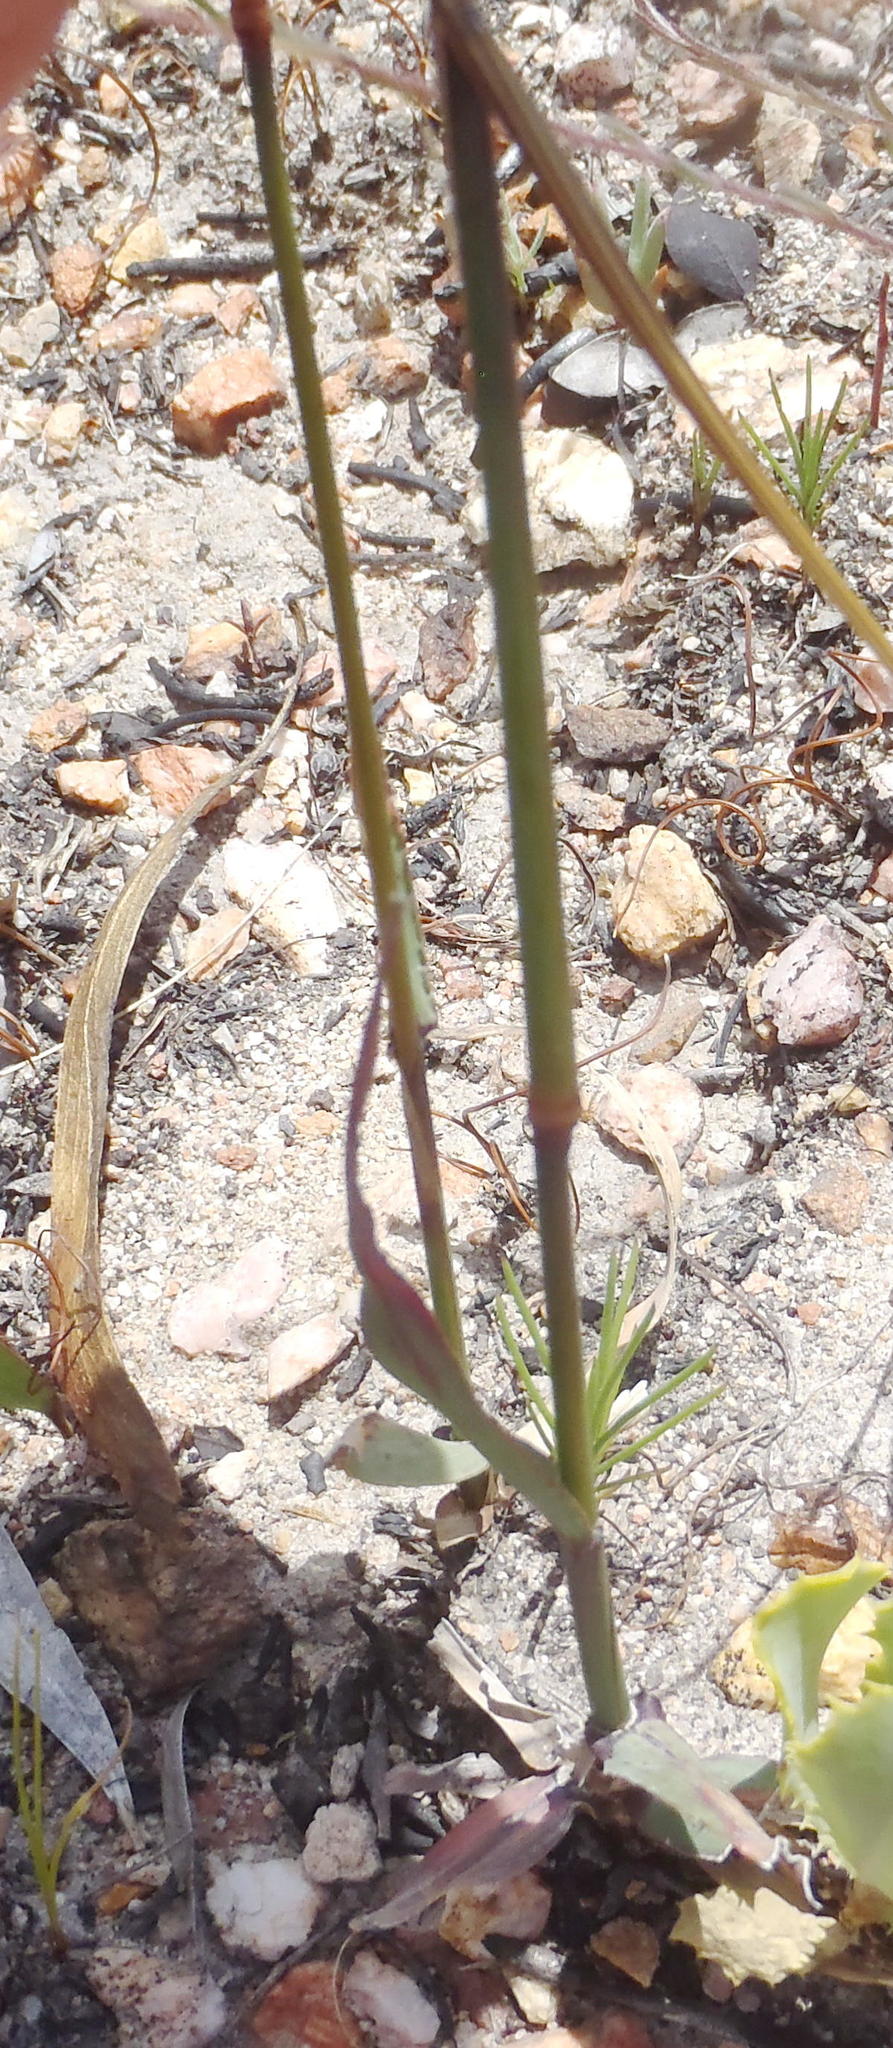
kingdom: Plantae
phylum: Tracheophyta
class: Liliopsida
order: Poales
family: Poaceae
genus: Ehrharta
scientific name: Ehrharta capensis
